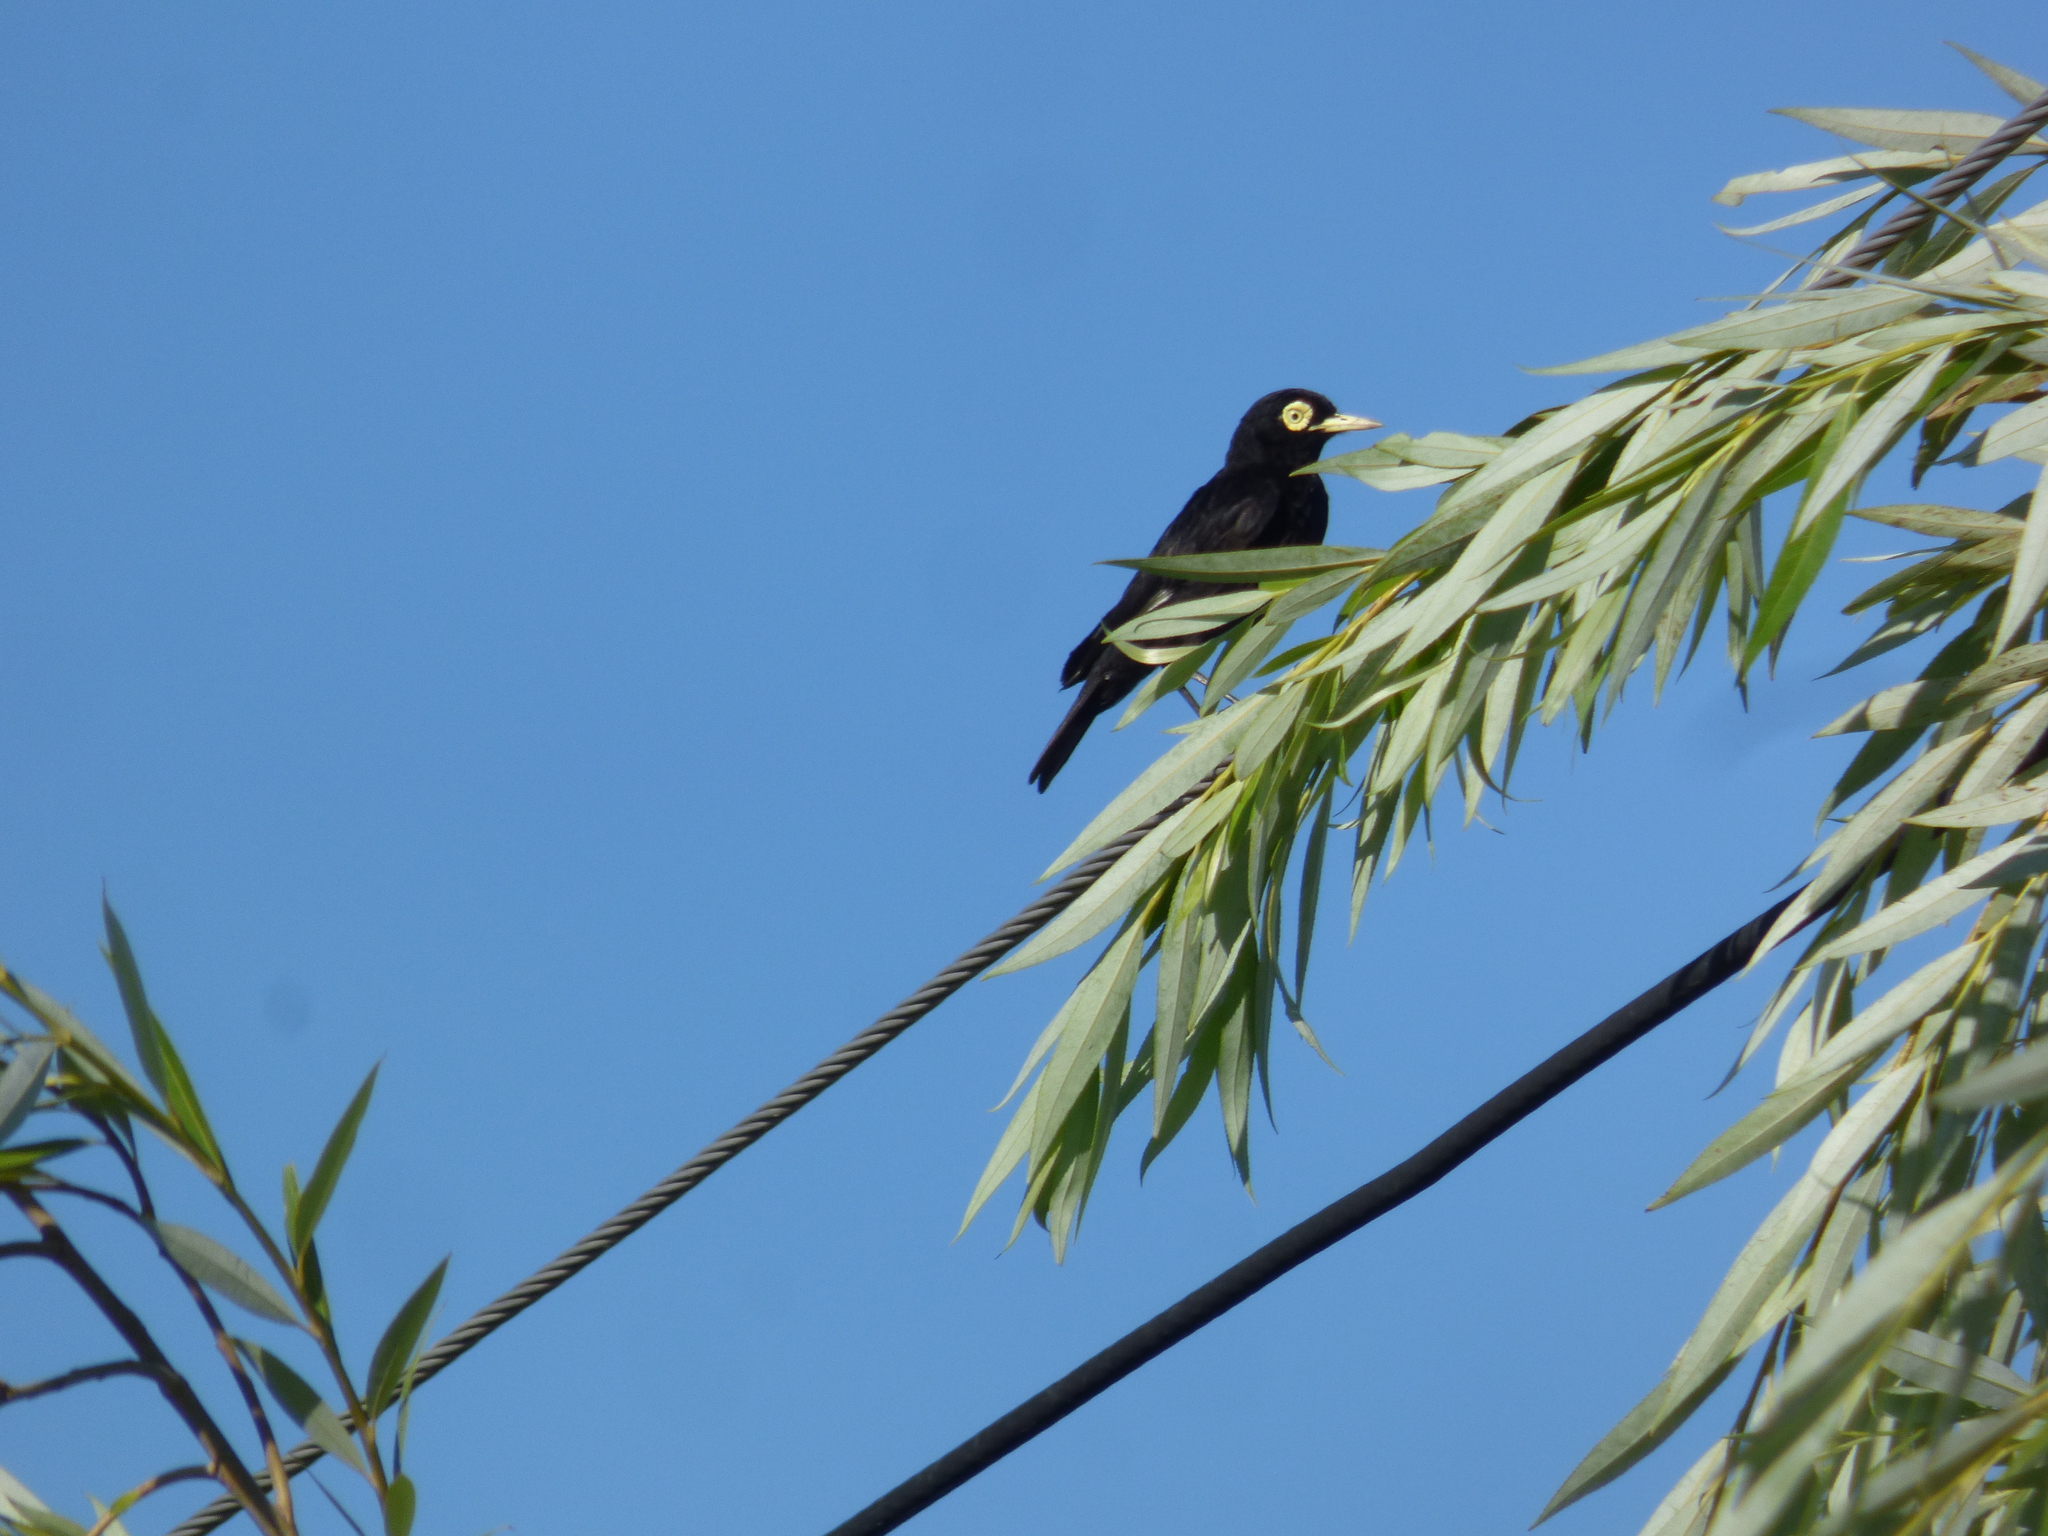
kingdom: Animalia
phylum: Chordata
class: Aves
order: Passeriformes
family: Tyrannidae
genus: Hymenops
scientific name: Hymenops perspicillatus
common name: Spectacled tyrant
